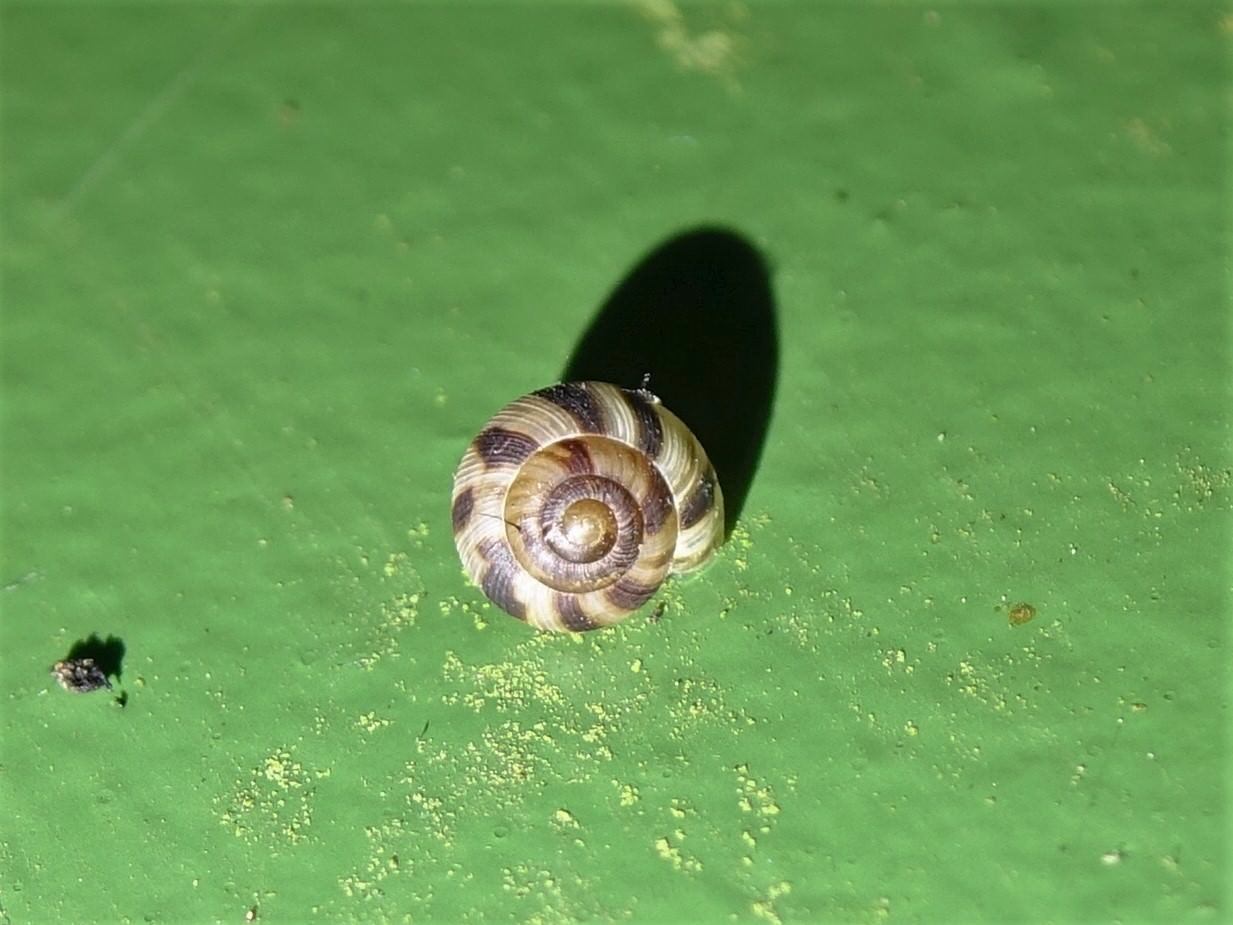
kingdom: Animalia
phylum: Mollusca
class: Gastropoda
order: Stylommatophora
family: Charopidae
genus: Serpho
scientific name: Serpho
